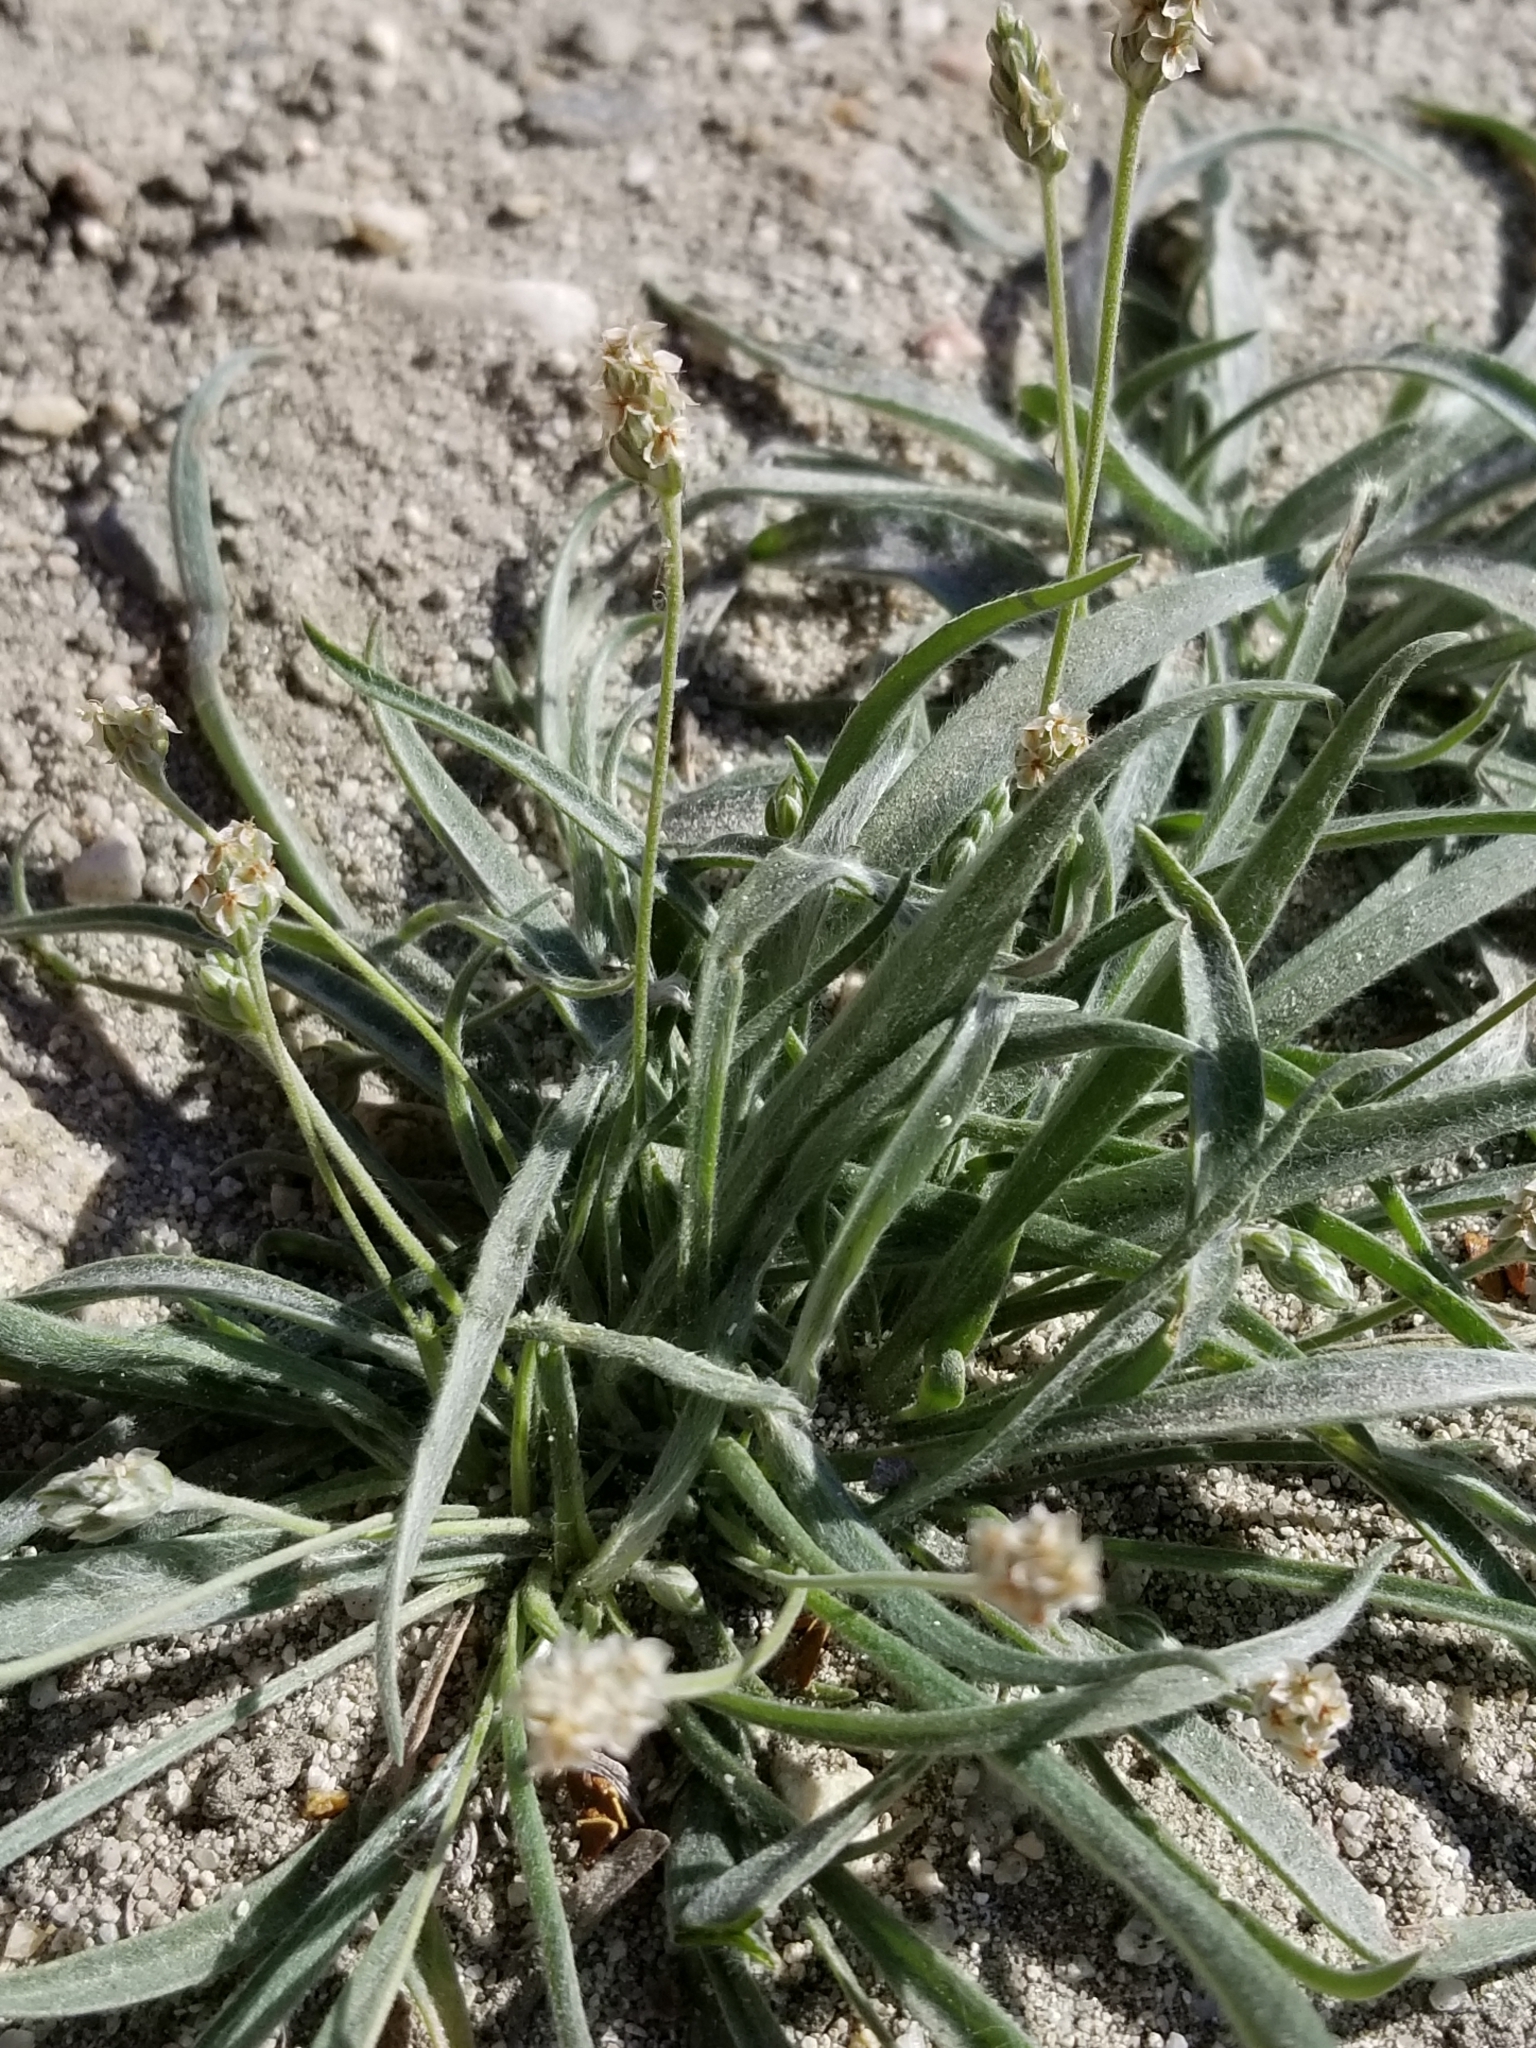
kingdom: Plantae
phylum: Tracheophyta
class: Magnoliopsida
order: Lamiales
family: Plantaginaceae
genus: Plantago
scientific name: Plantago ovata
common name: Blond plantain
